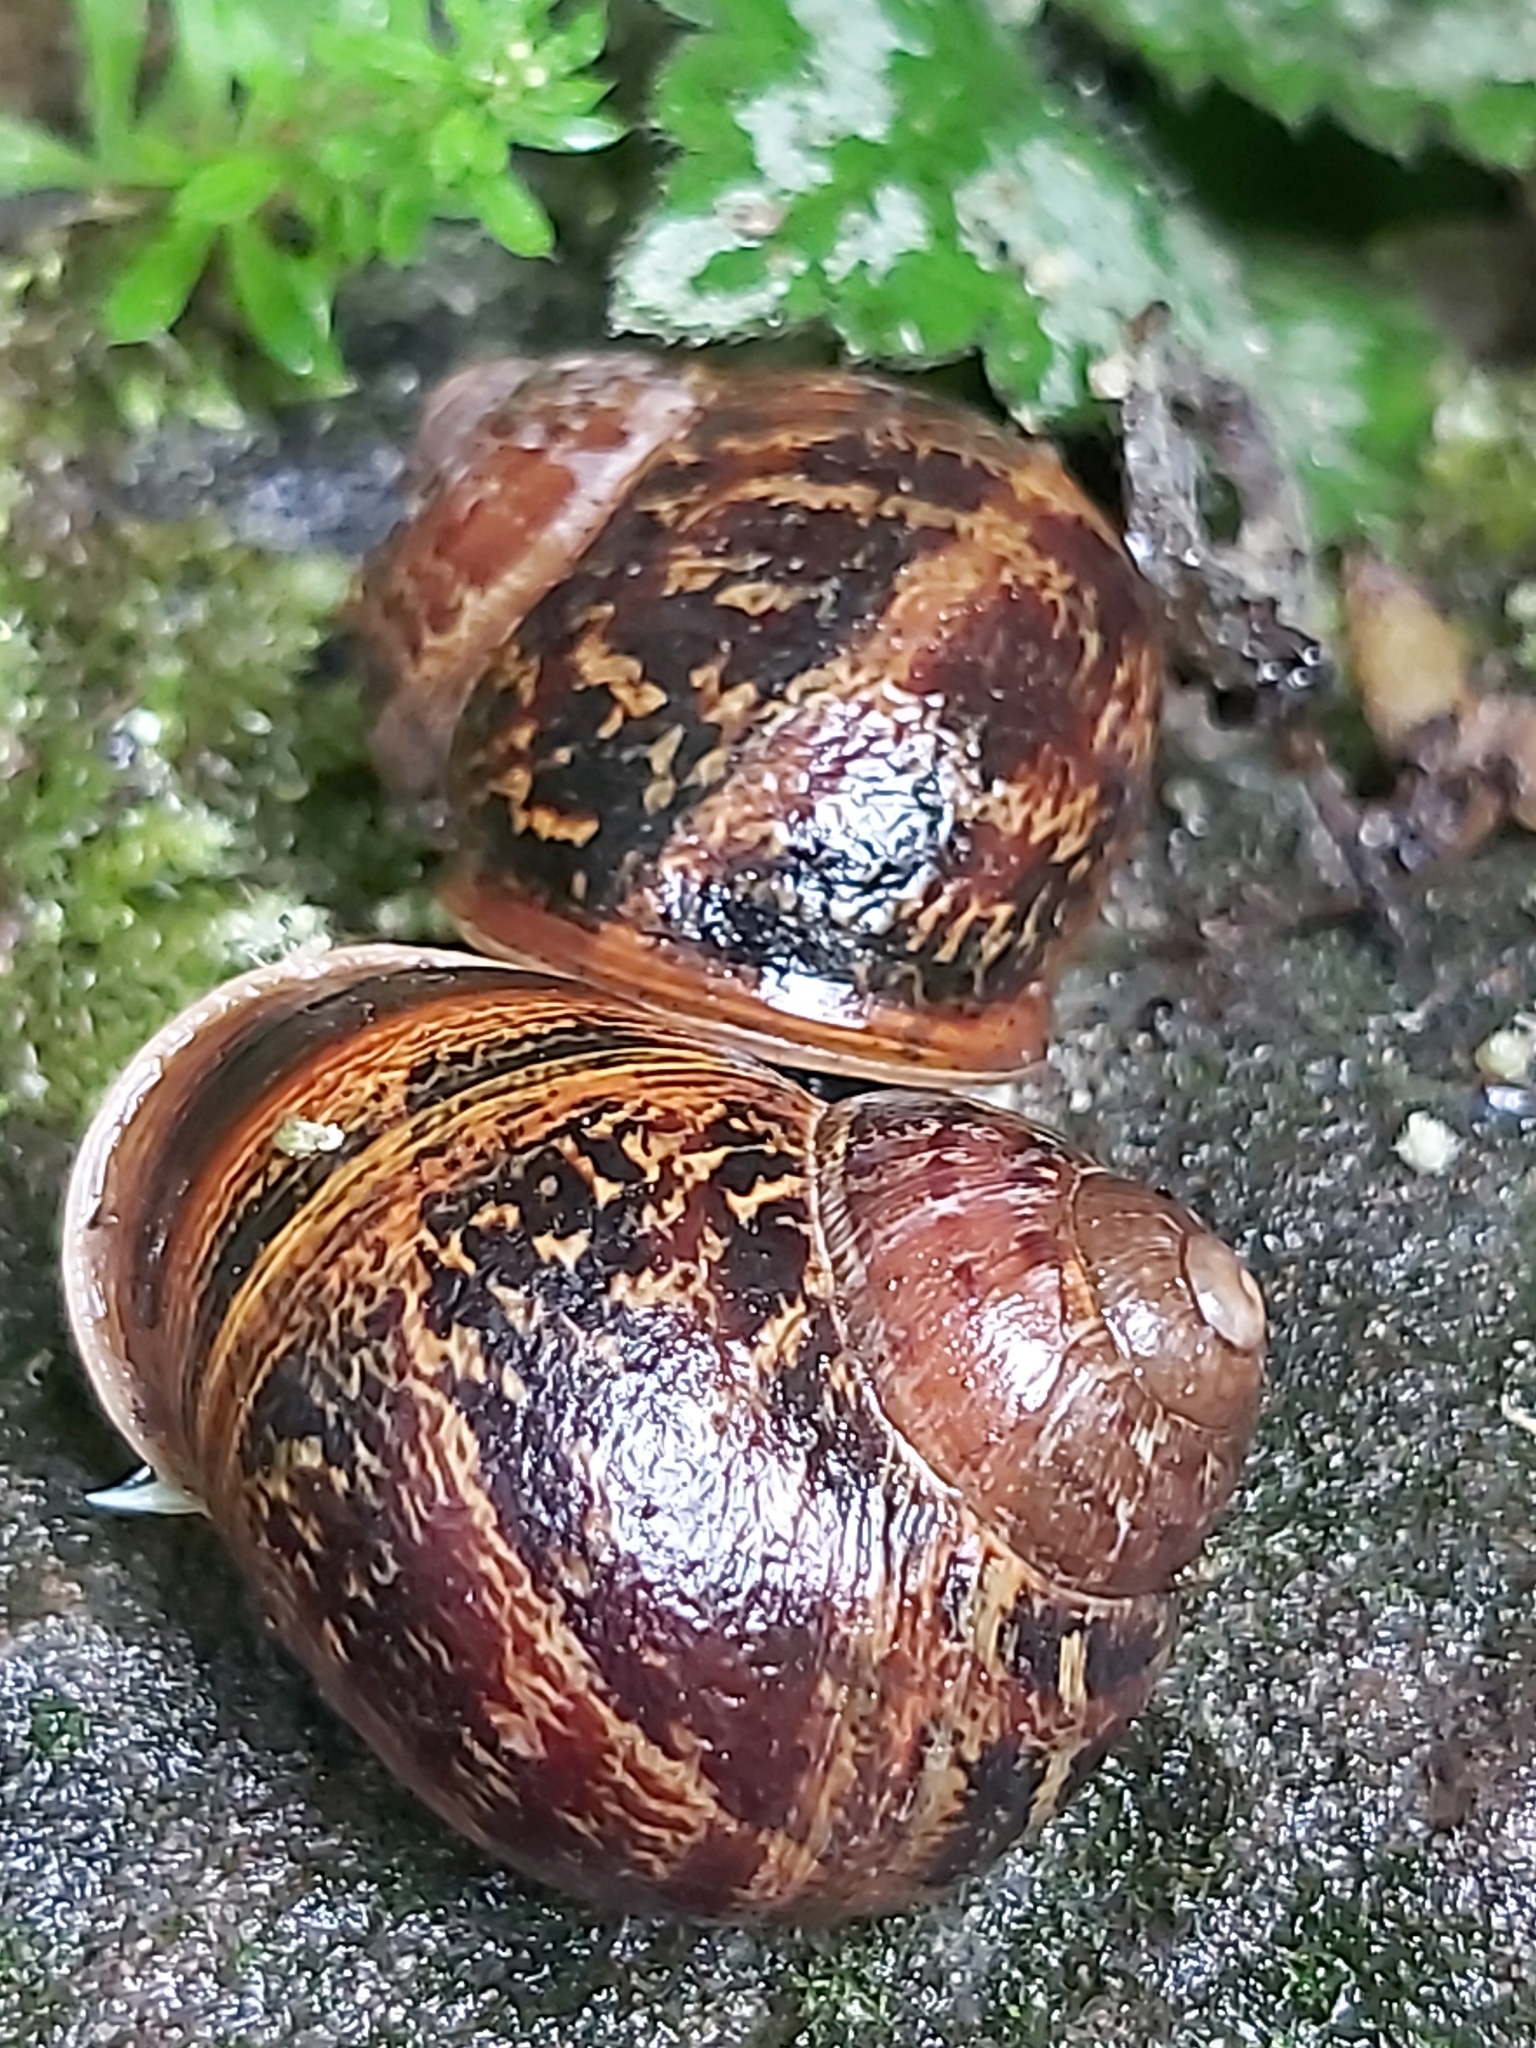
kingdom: Animalia
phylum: Mollusca
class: Gastropoda
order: Stylommatophora
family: Helicidae
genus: Cornu
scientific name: Cornu aspersum
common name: Brown garden snail
